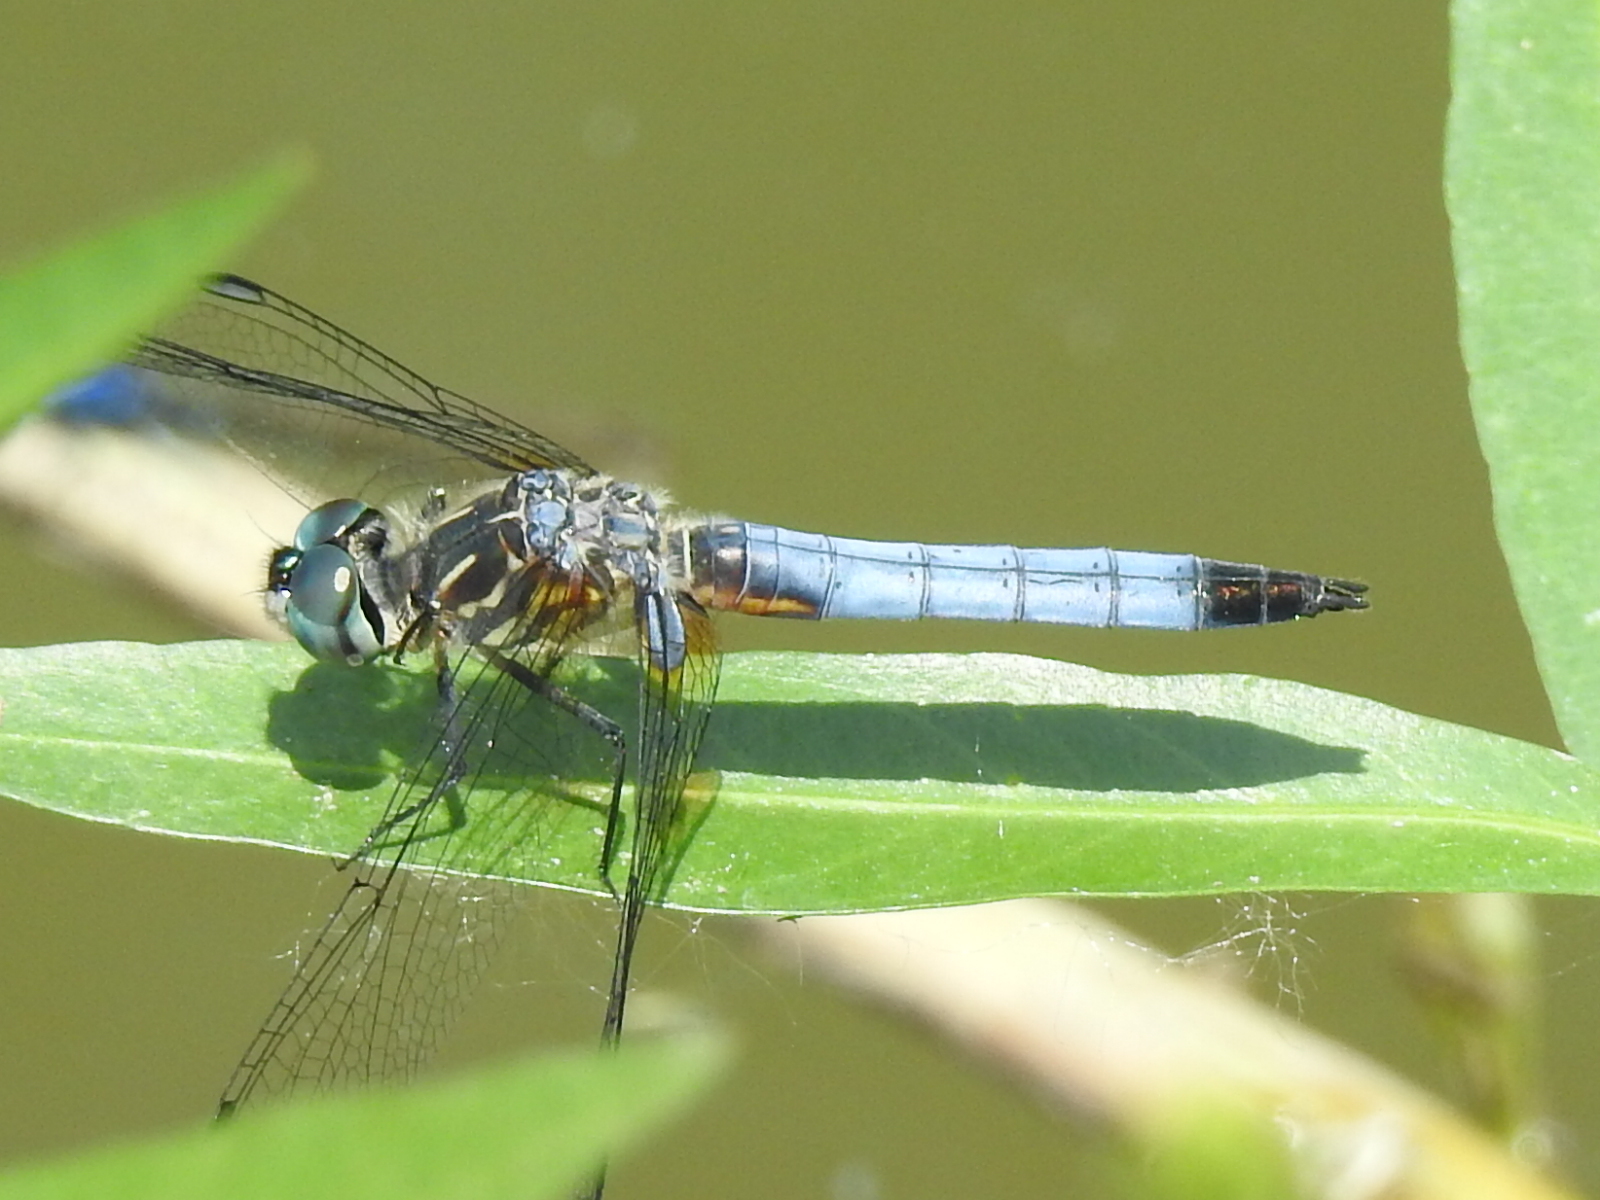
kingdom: Animalia
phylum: Arthropoda
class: Insecta
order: Odonata
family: Libellulidae
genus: Pachydiplax
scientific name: Pachydiplax longipennis
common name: Blue dasher
